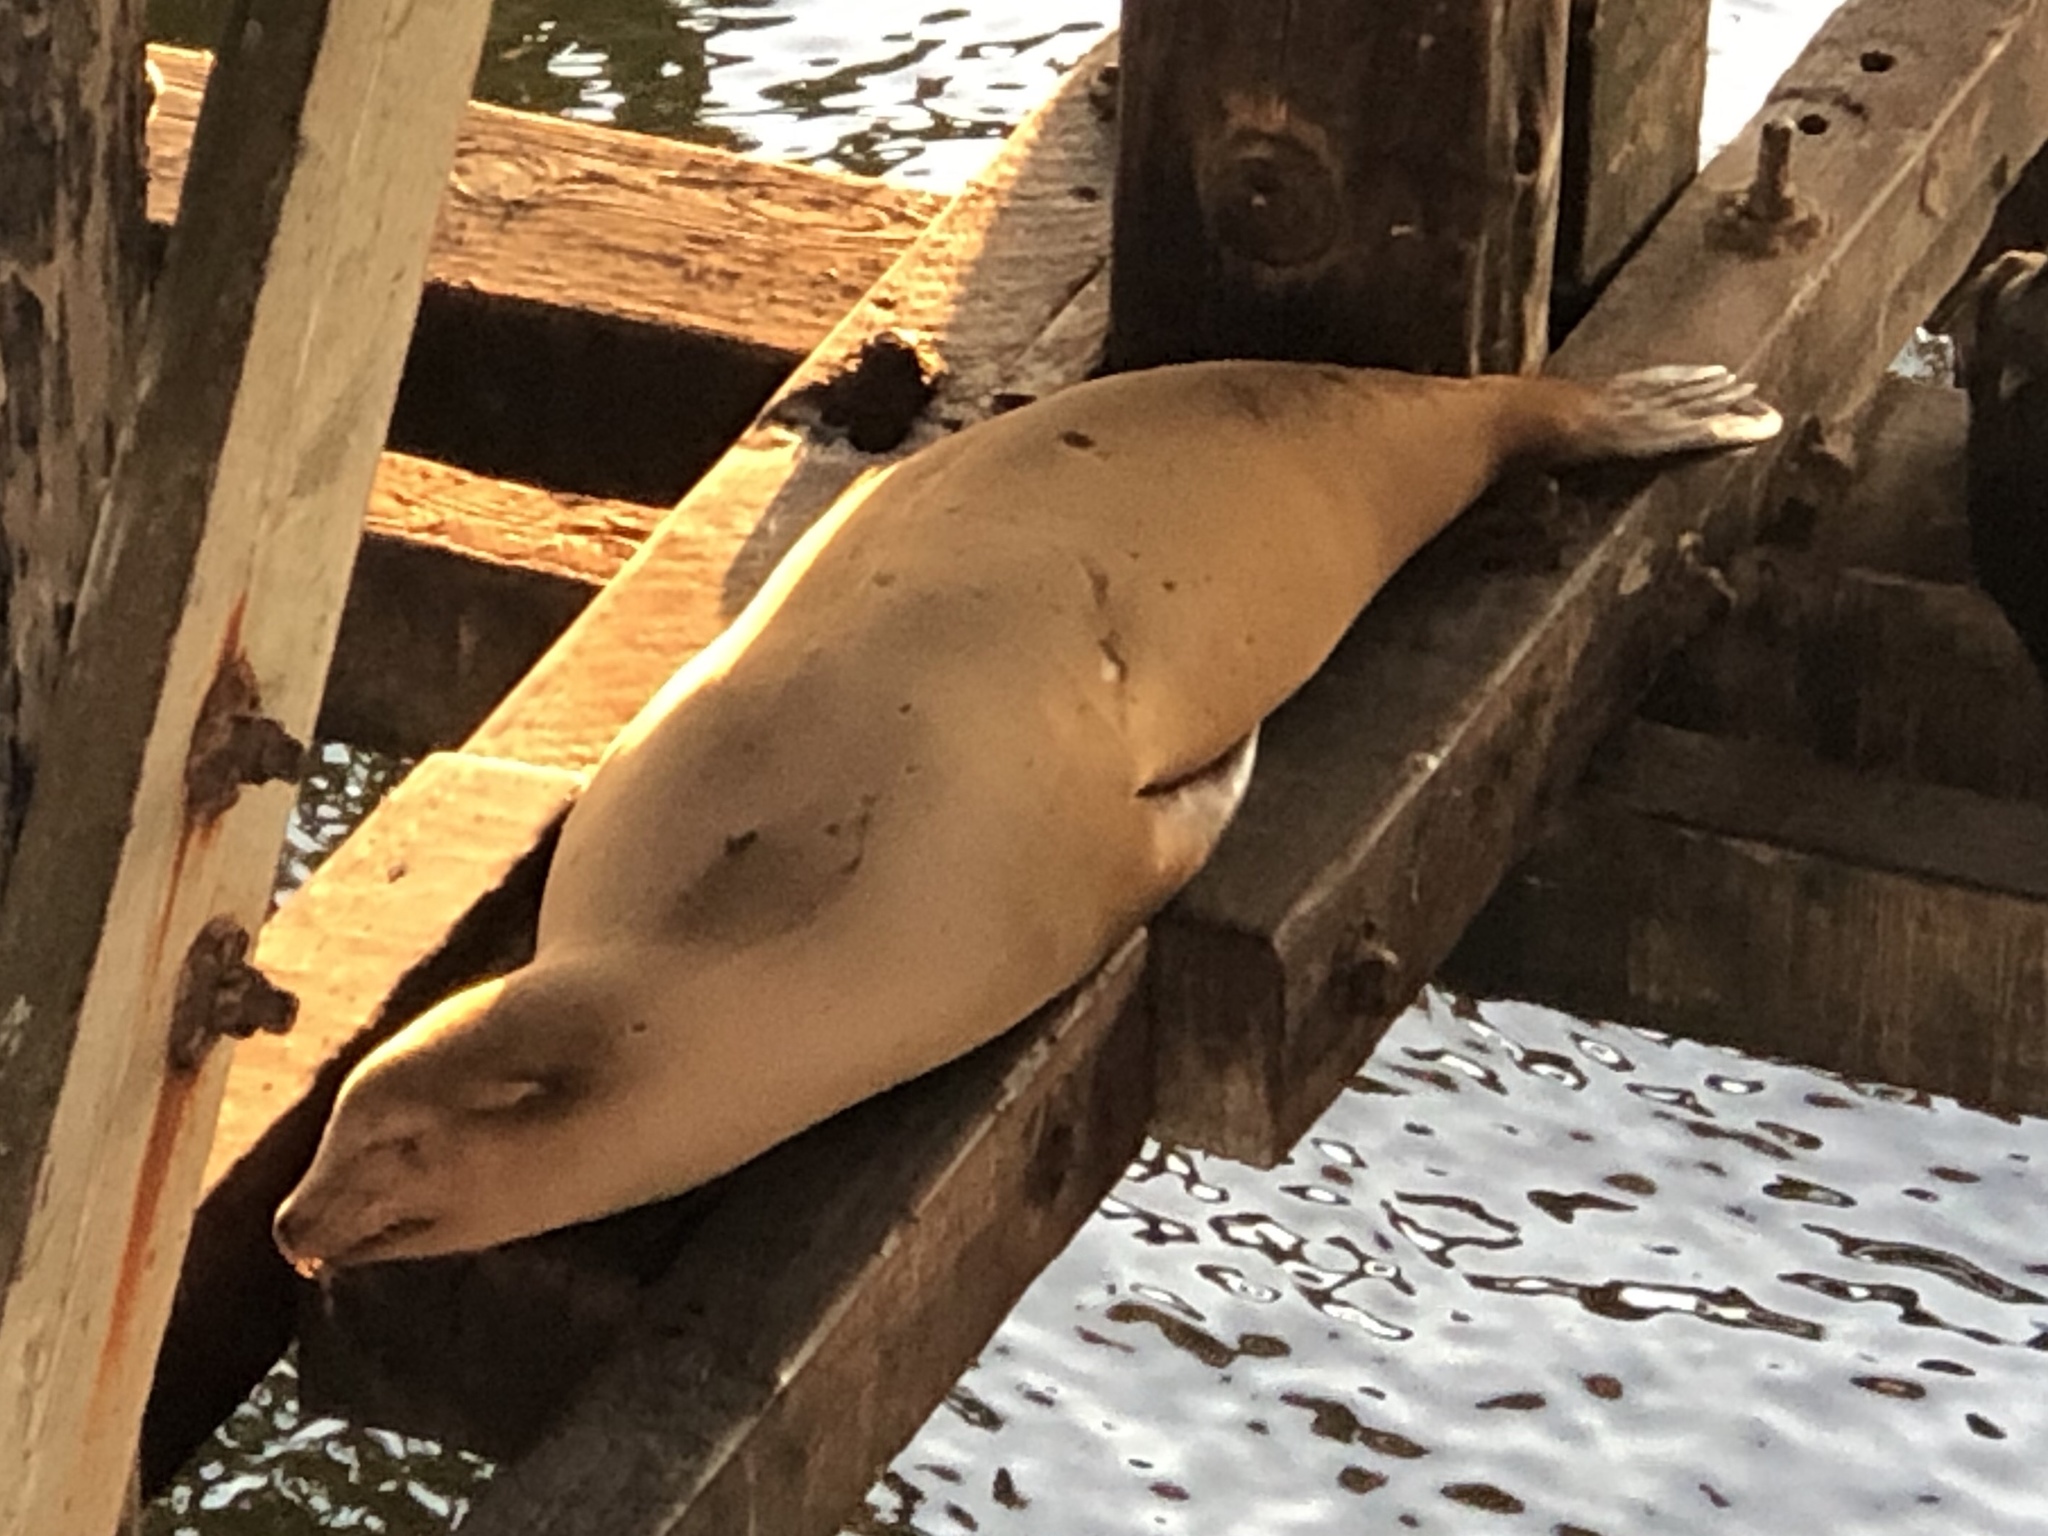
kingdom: Animalia
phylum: Chordata
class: Mammalia
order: Carnivora
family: Otariidae
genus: Zalophus
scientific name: Zalophus californianus
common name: California sea lion
